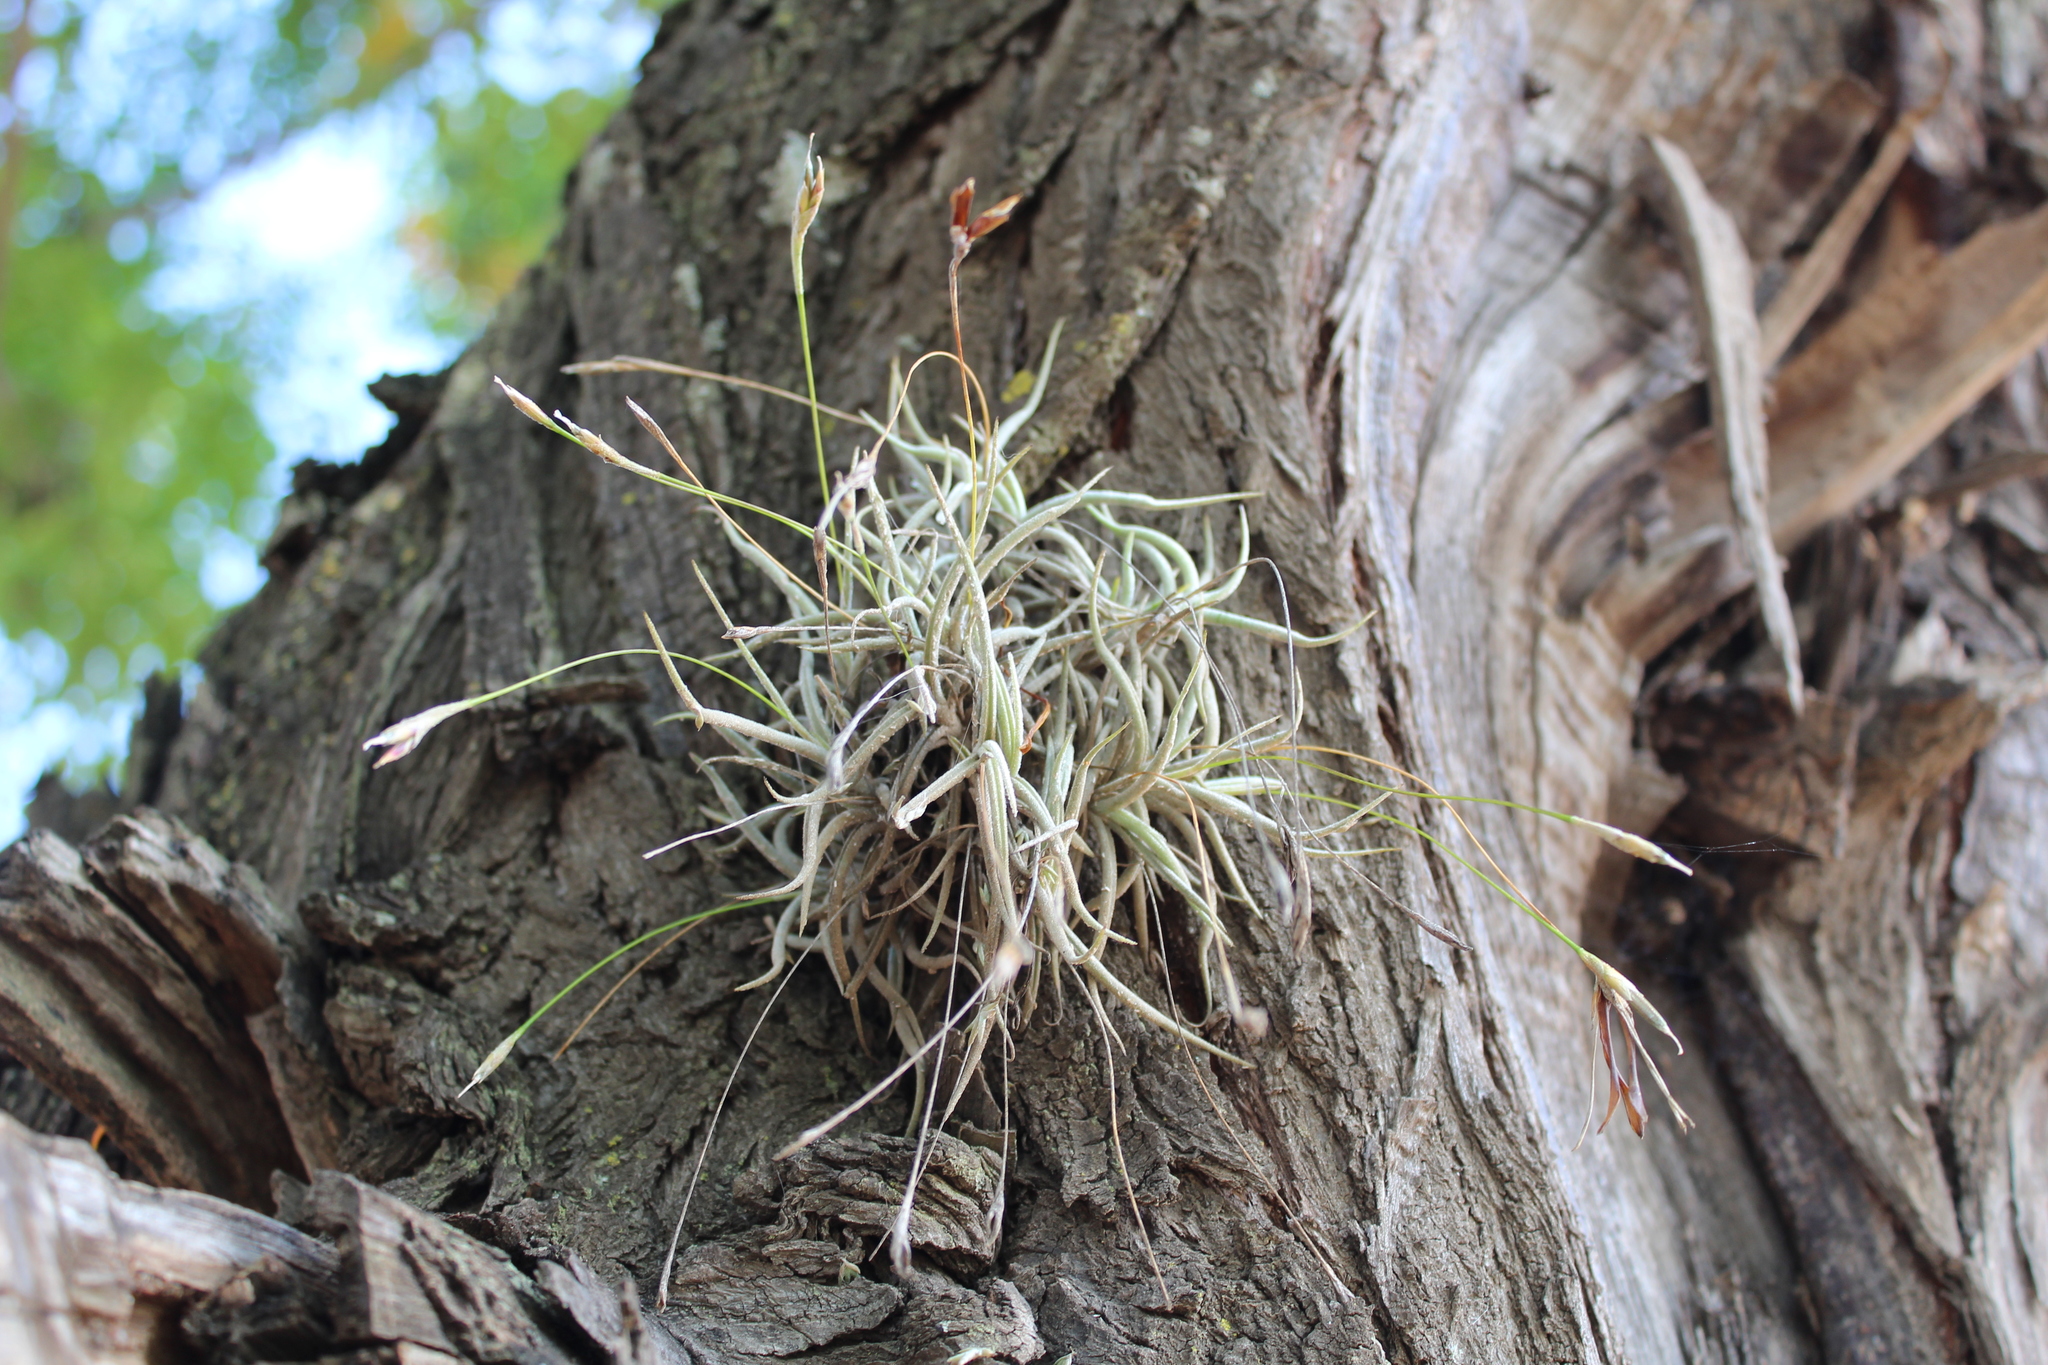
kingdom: Plantae
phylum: Tracheophyta
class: Liliopsida
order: Poales
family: Bromeliaceae
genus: Tillandsia
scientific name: Tillandsia recurvata
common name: Small ballmoss
